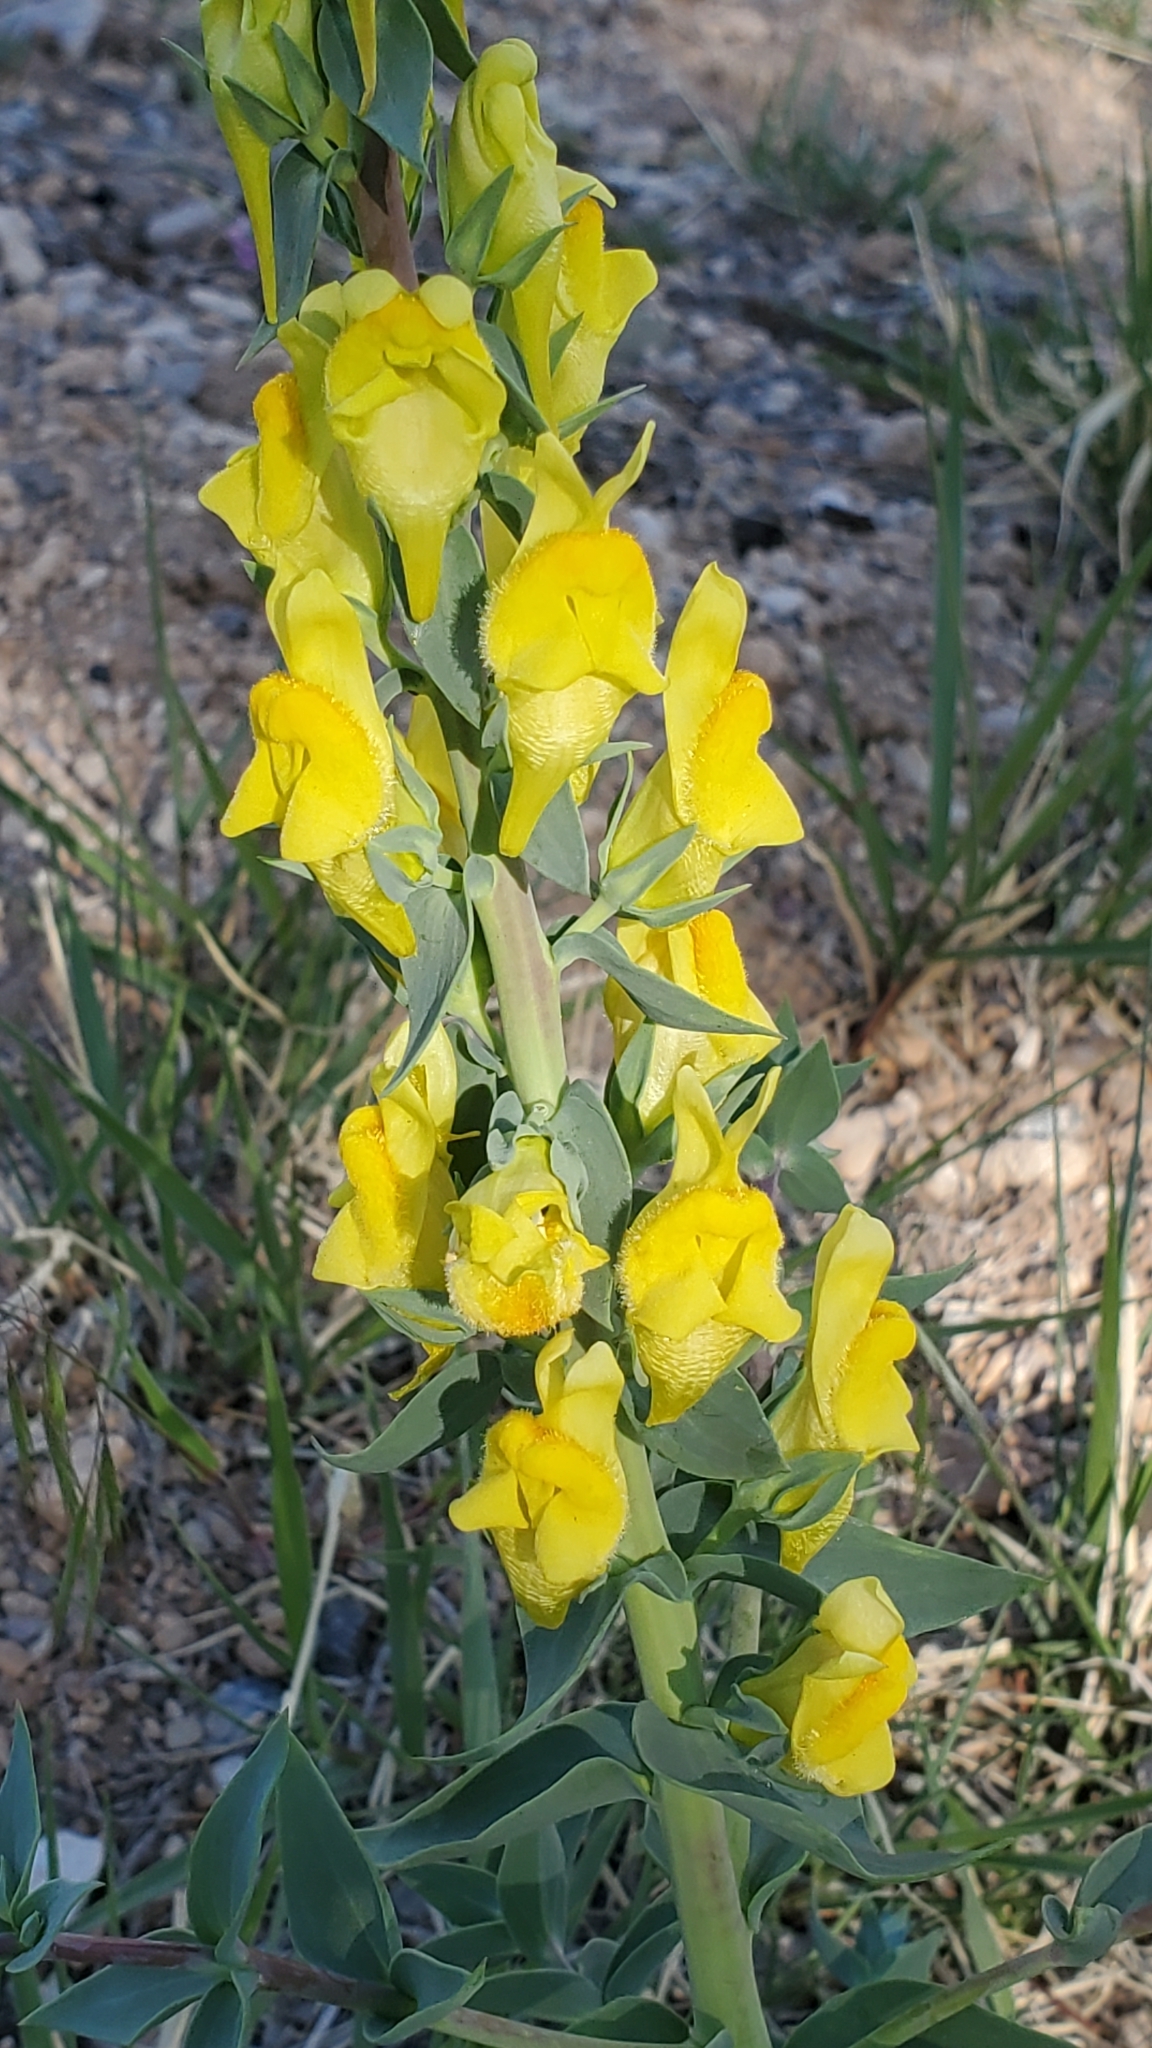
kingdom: Plantae
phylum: Tracheophyta
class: Magnoliopsida
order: Lamiales
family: Plantaginaceae
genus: Linaria
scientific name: Linaria dalmatica
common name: Dalmatian toadflax
